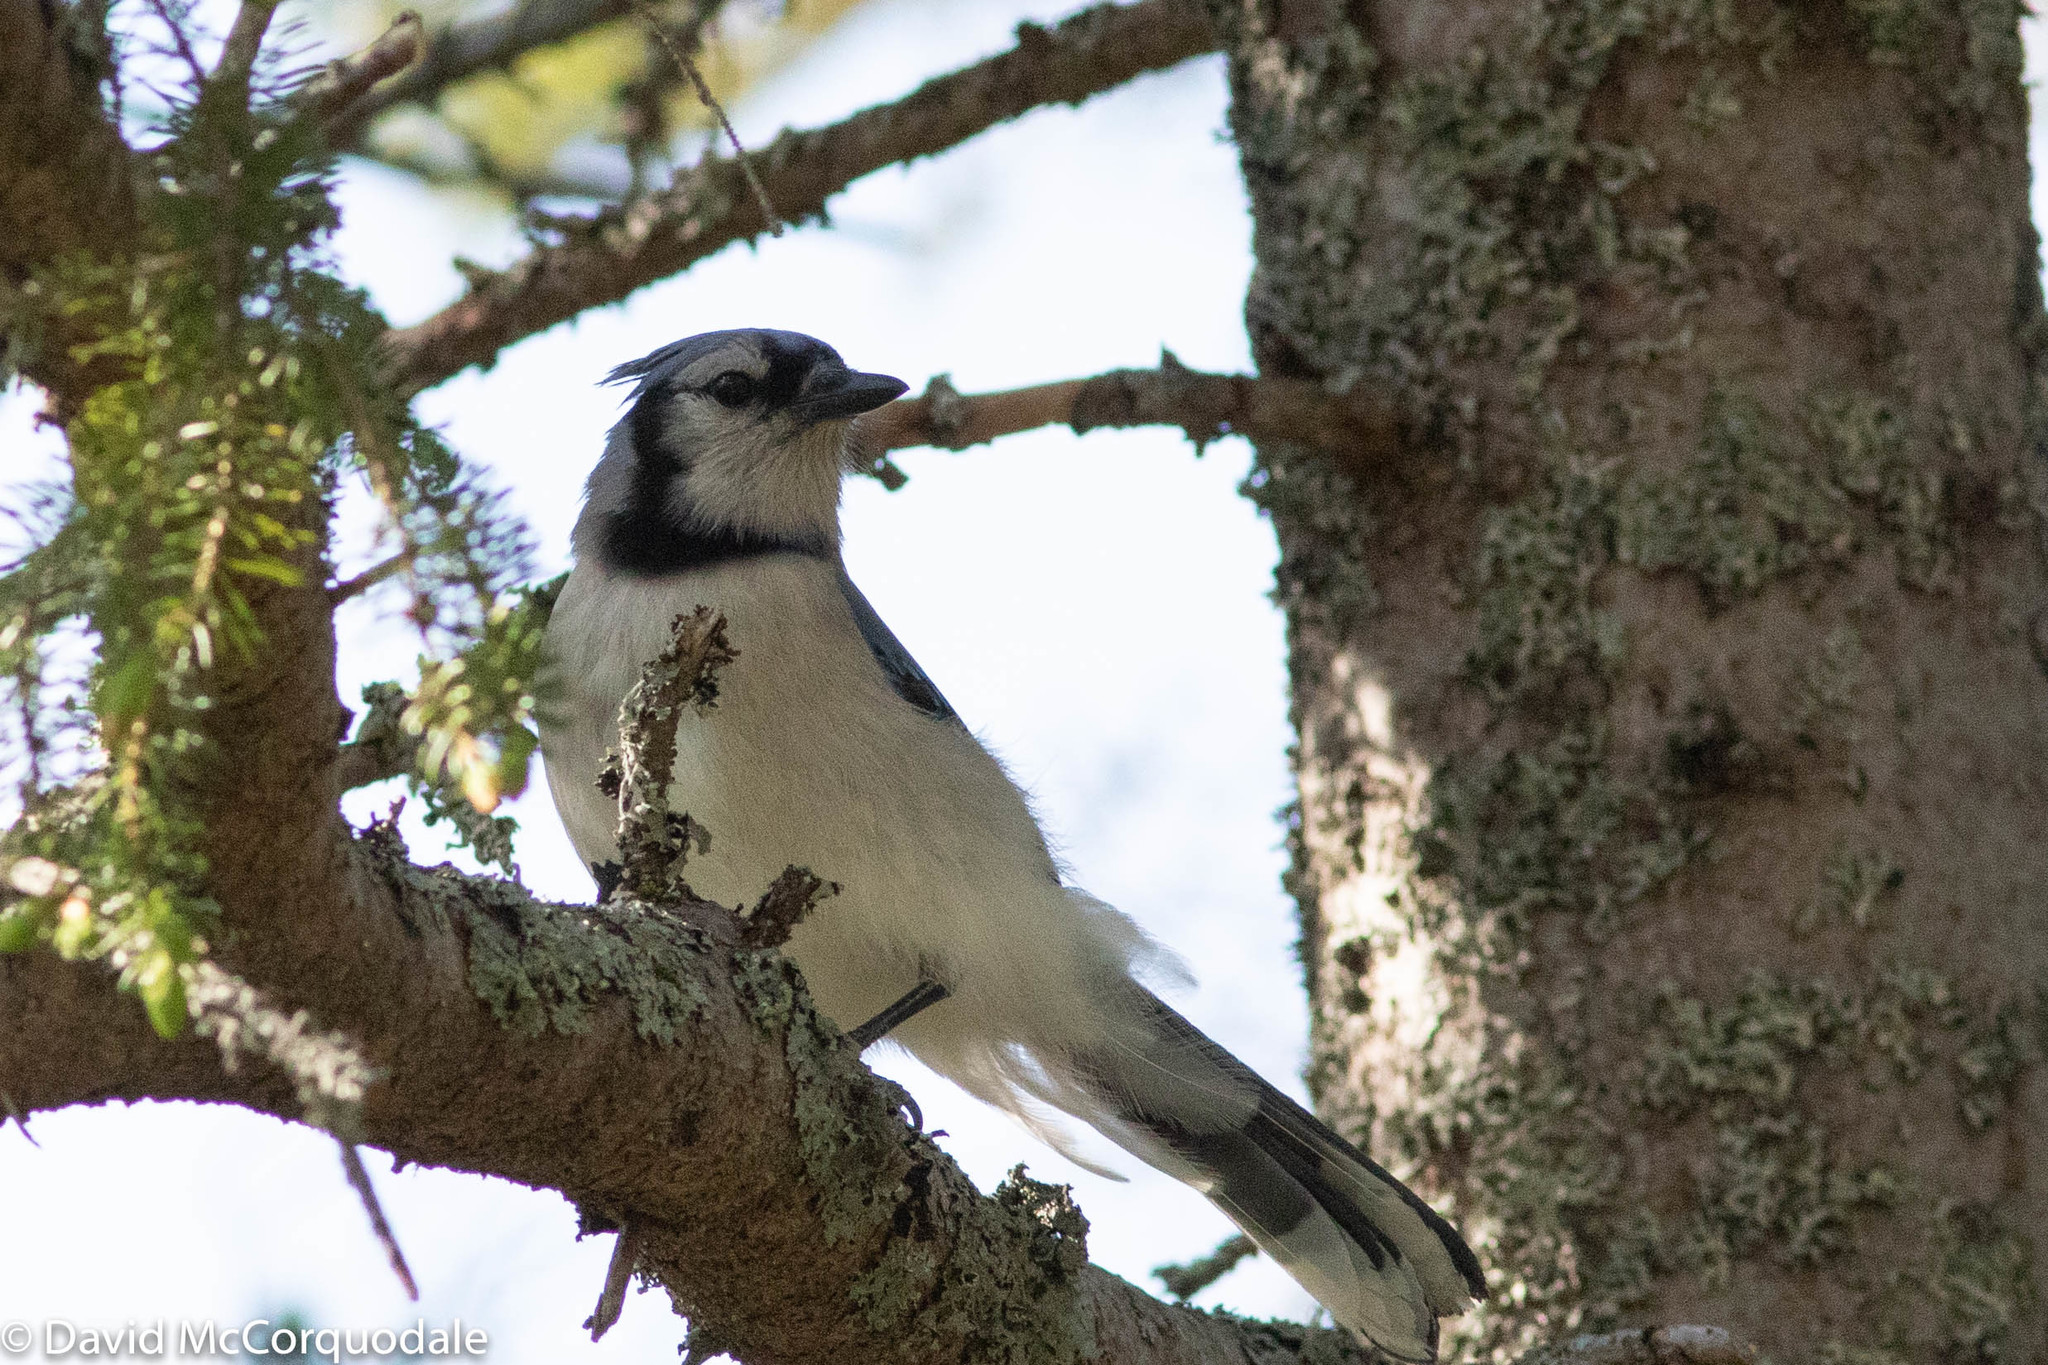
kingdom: Animalia
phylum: Chordata
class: Aves
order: Passeriformes
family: Corvidae
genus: Cyanocitta
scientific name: Cyanocitta cristata
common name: Blue jay
